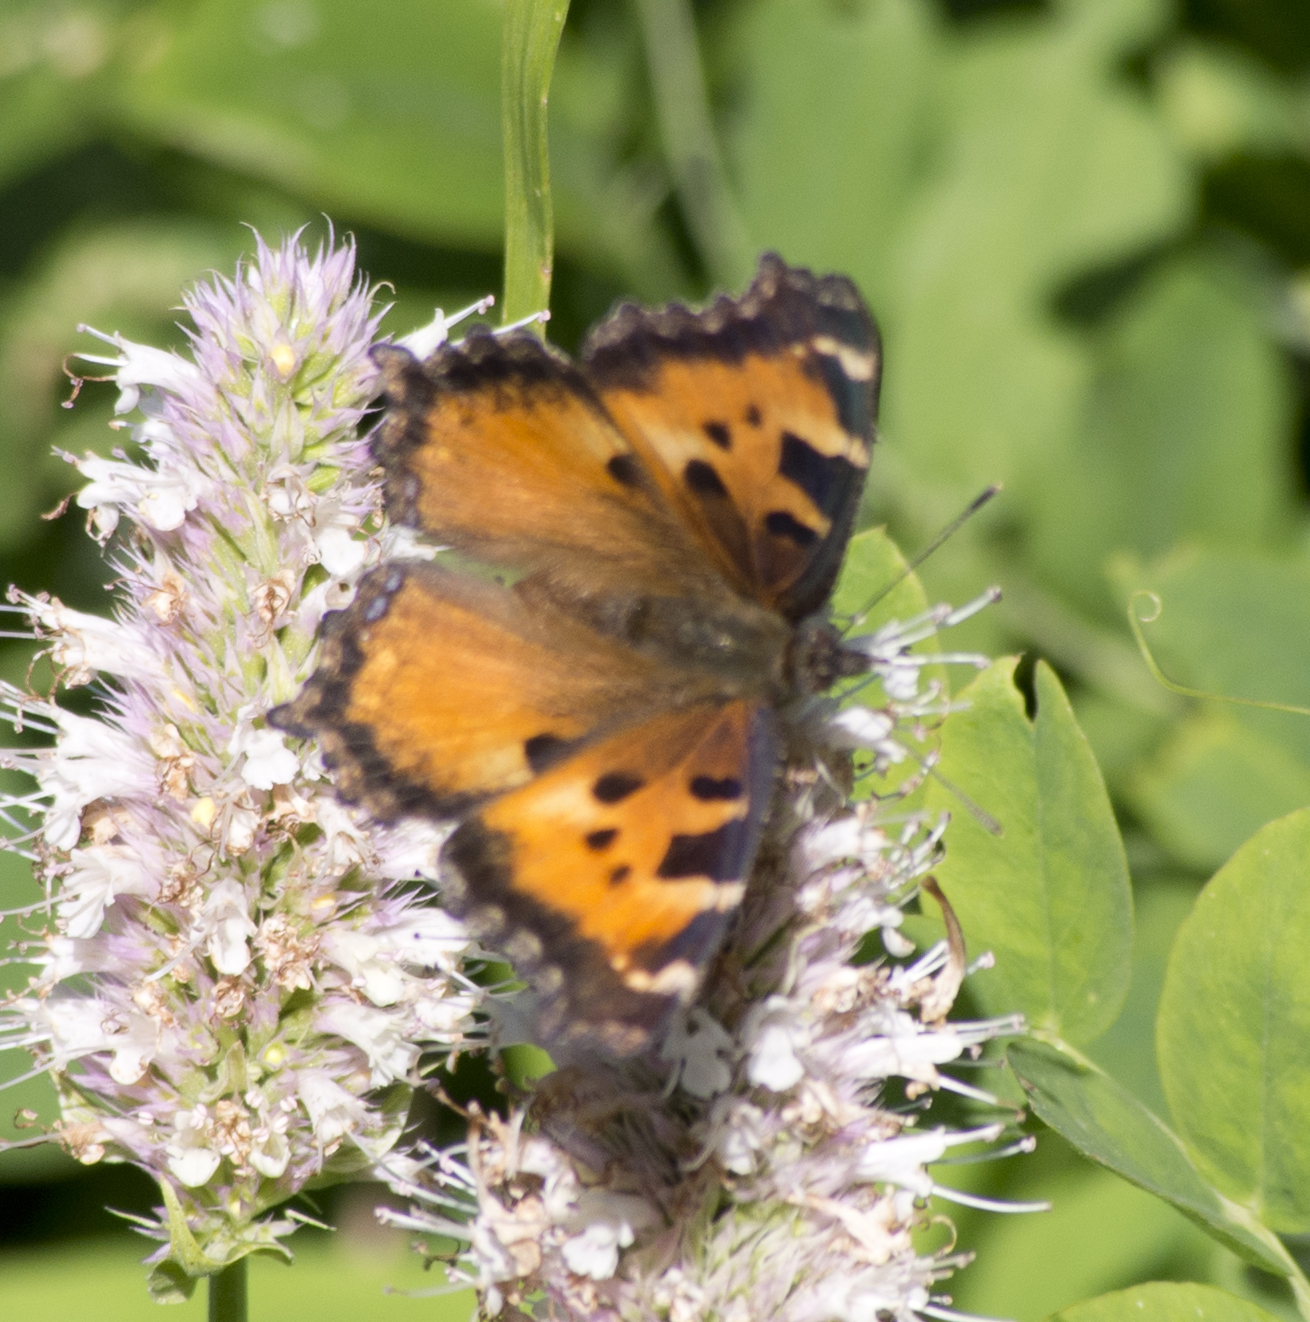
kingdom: Animalia
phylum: Arthropoda
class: Insecta
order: Lepidoptera
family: Nymphalidae
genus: Nymphalis
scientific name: Nymphalis californica
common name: California tortoiseshell
